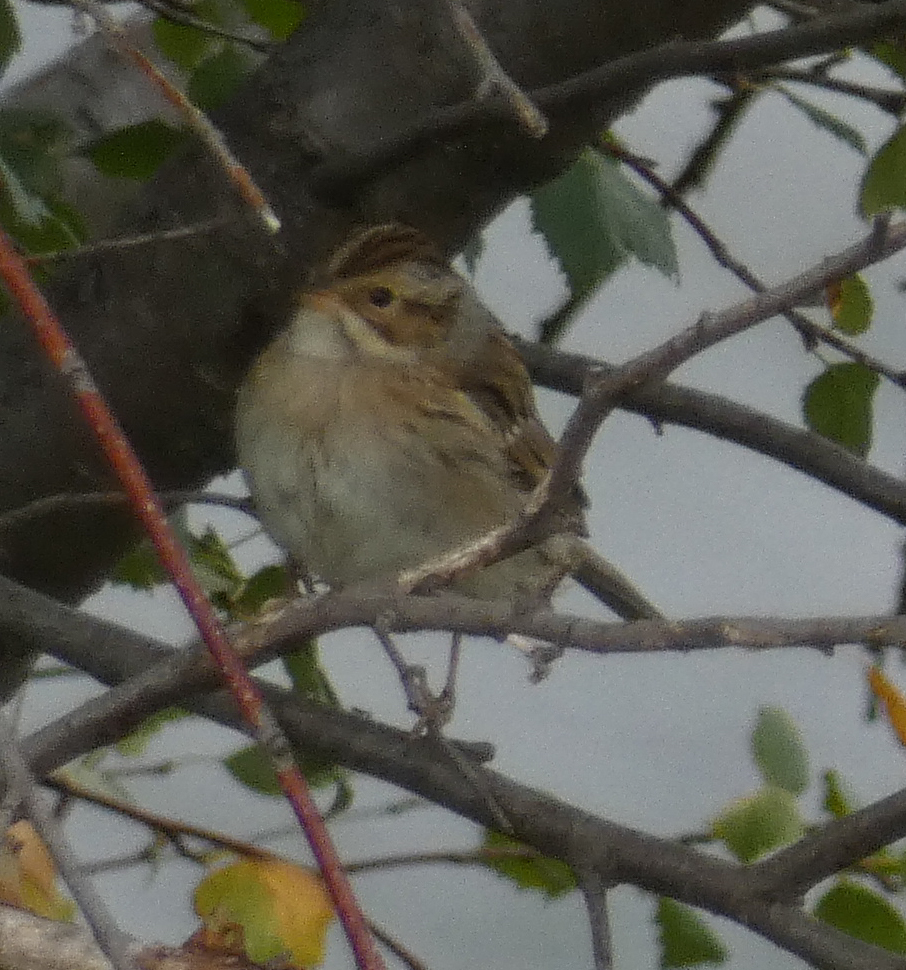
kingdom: Animalia
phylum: Chordata
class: Aves
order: Passeriformes
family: Passerellidae
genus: Spizella
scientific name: Spizella pallida
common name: Clay-colored sparrow
